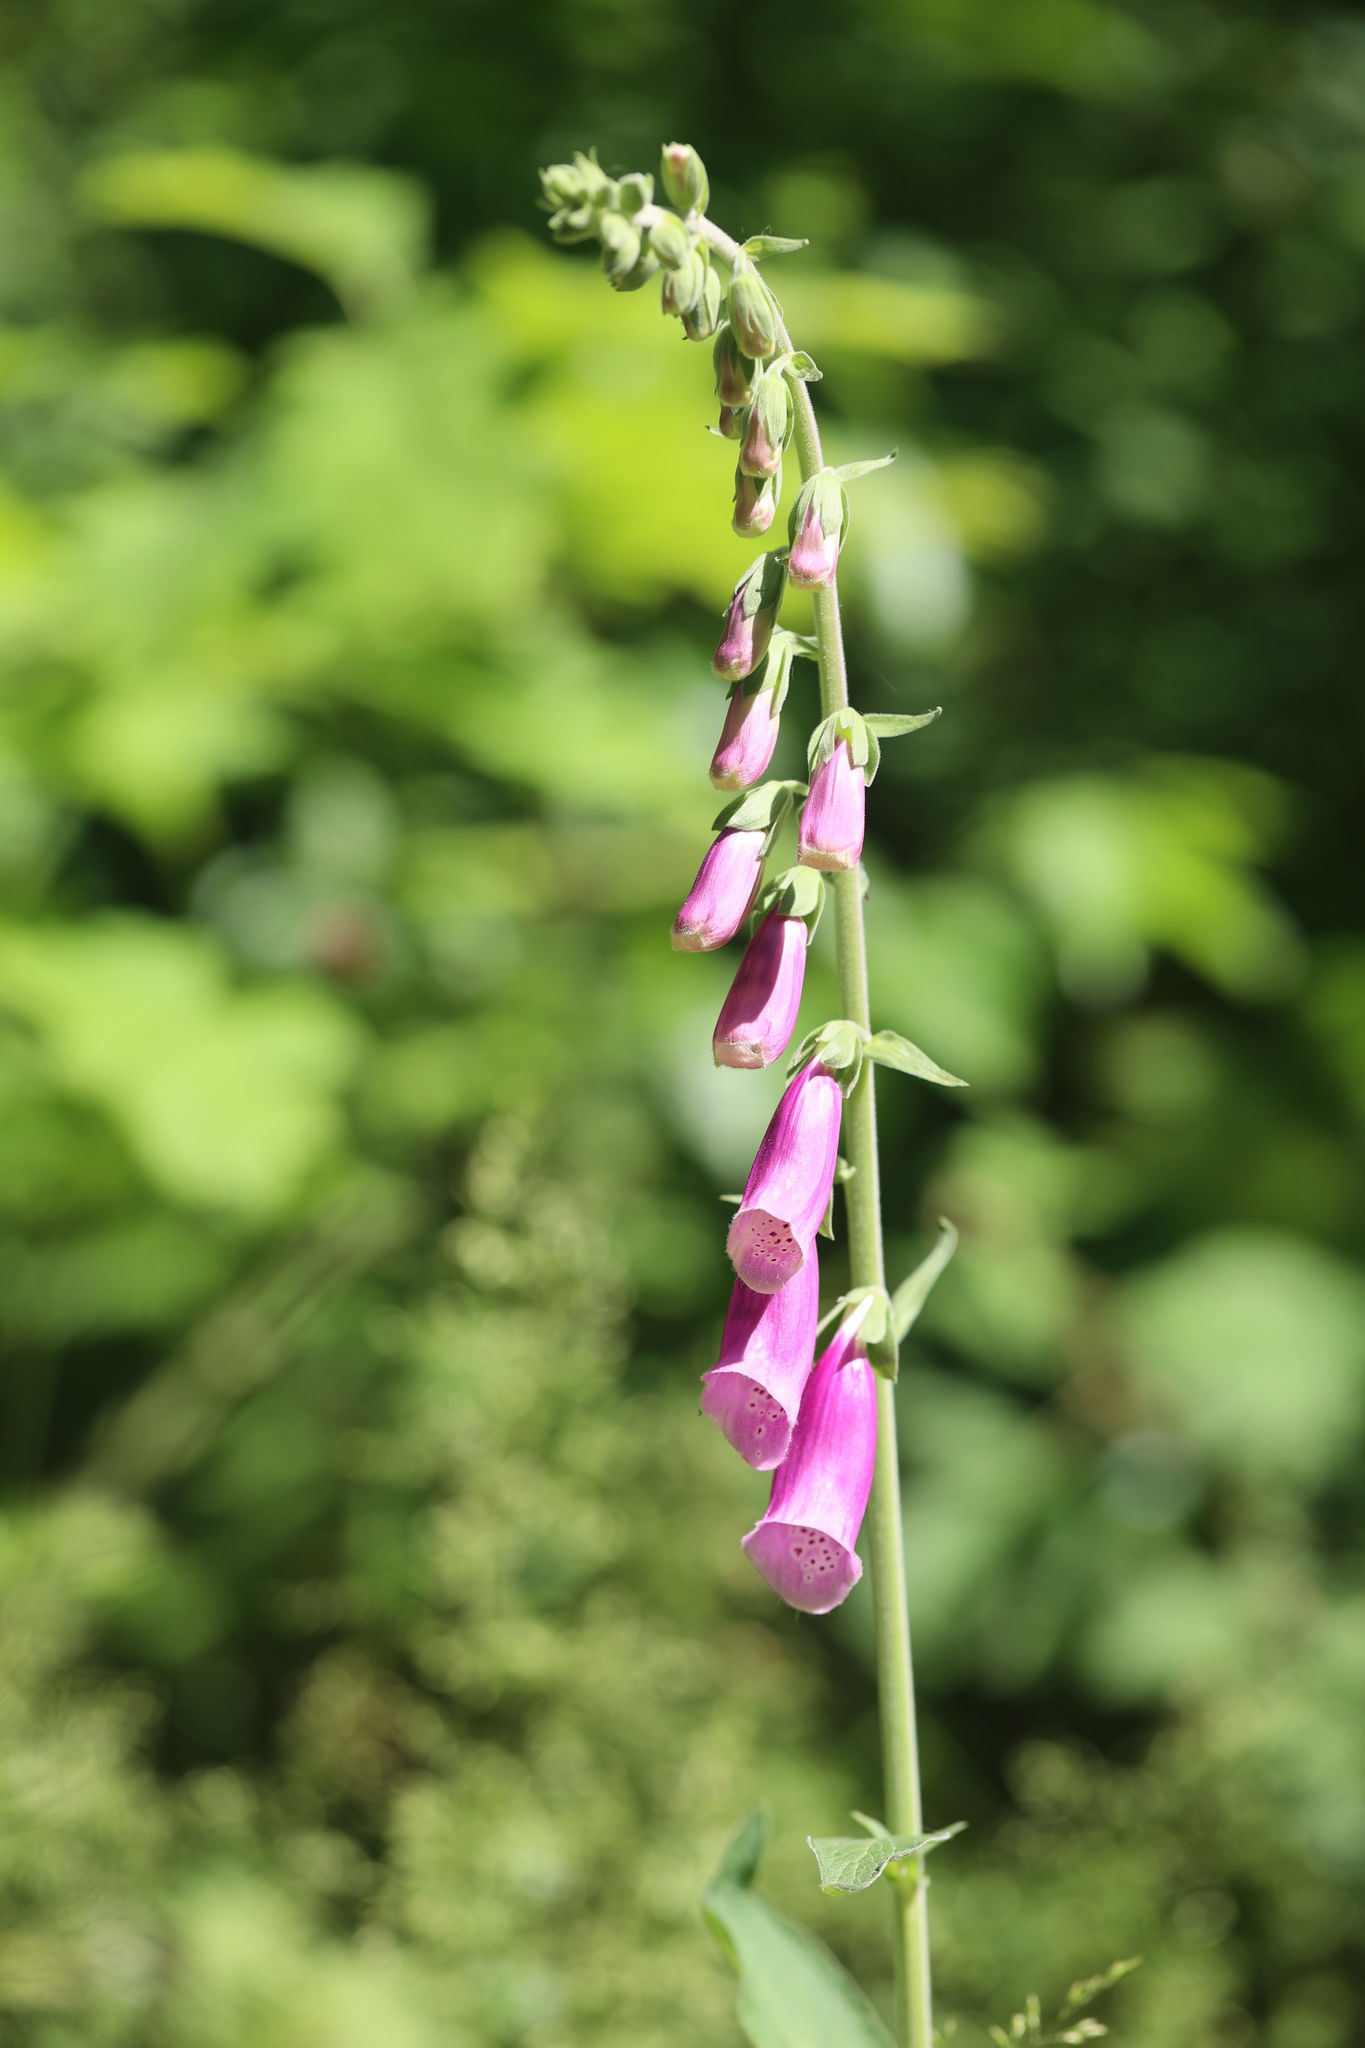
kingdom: Plantae
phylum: Tracheophyta
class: Magnoliopsida
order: Lamiales
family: Plantaginaceae
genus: Digitalis
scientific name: Digitalis purpurea
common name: Foxglove
